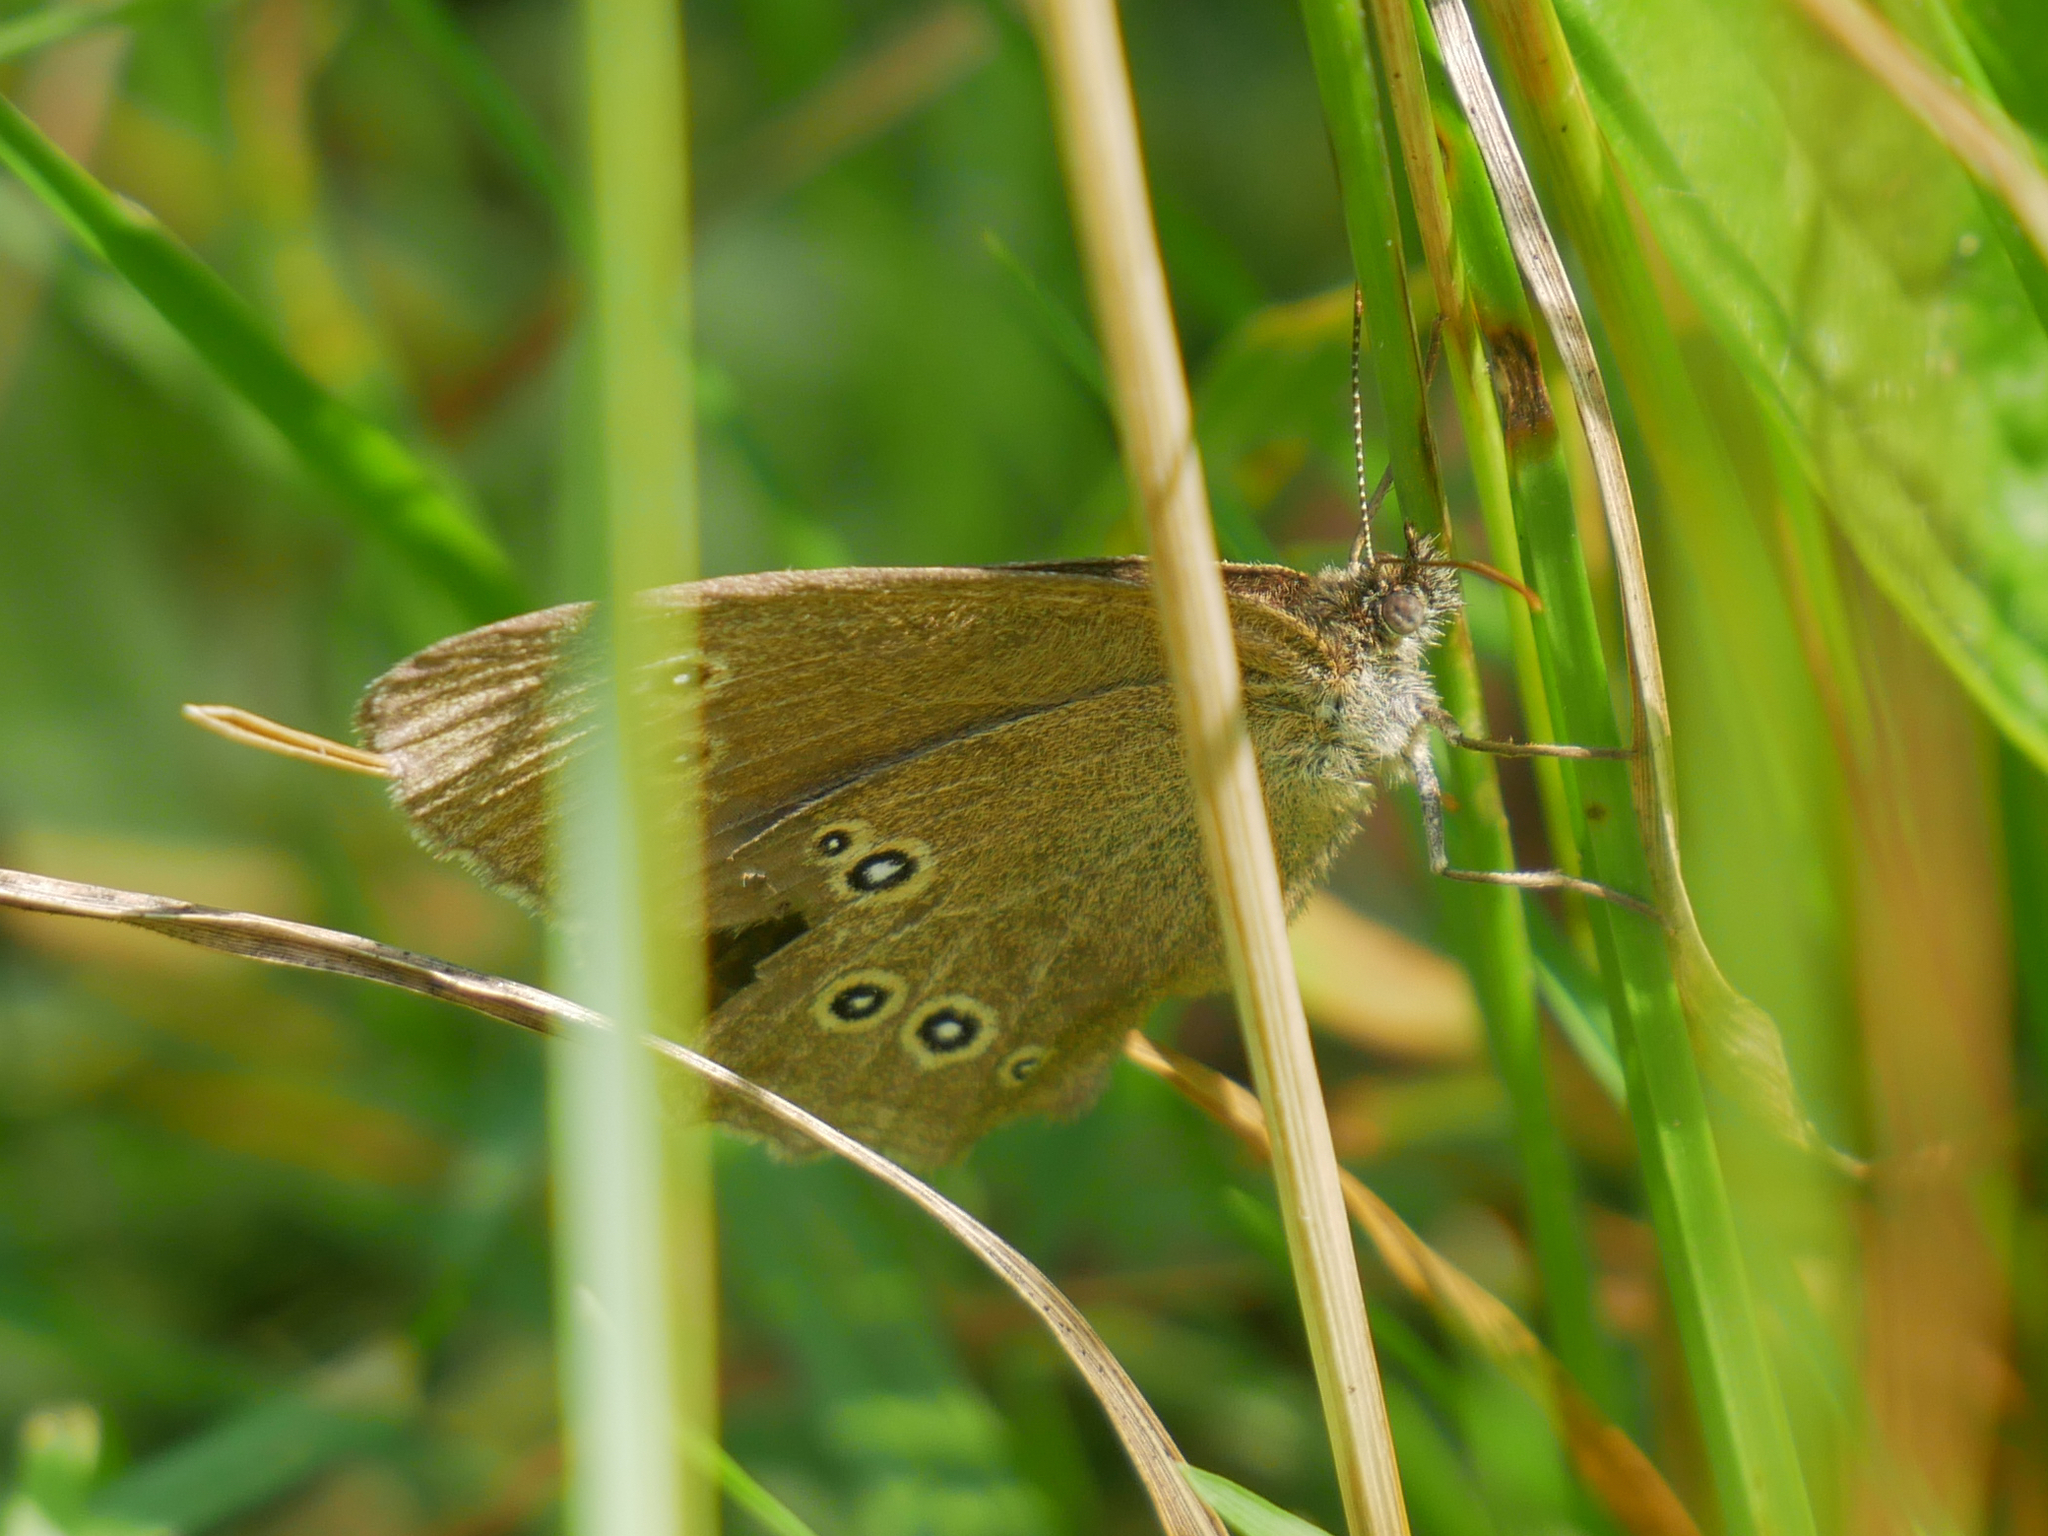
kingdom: Animalia
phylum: Arthropoda
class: Insecta
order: Lepidoptera
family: Nymphalidae
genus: Aphantopus
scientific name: Aphantopus hyperantus
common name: Ringlet
